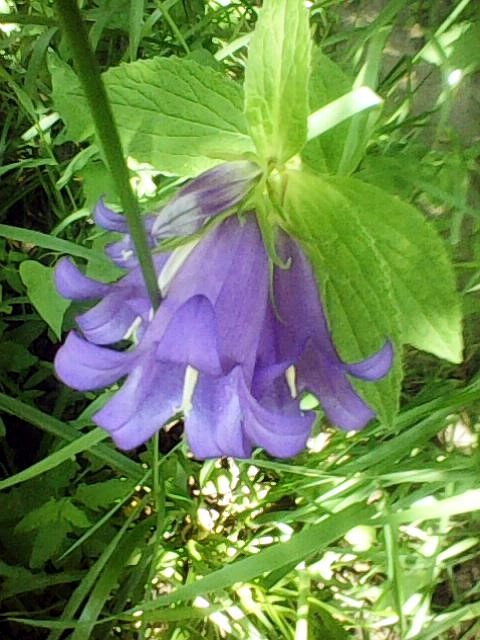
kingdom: Plantae
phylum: Tracheophyta
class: Magnoliopsida
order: Asterales
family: Campanulaceae
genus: Campanula
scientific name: Campanula latifolia
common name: Giant bellflower
